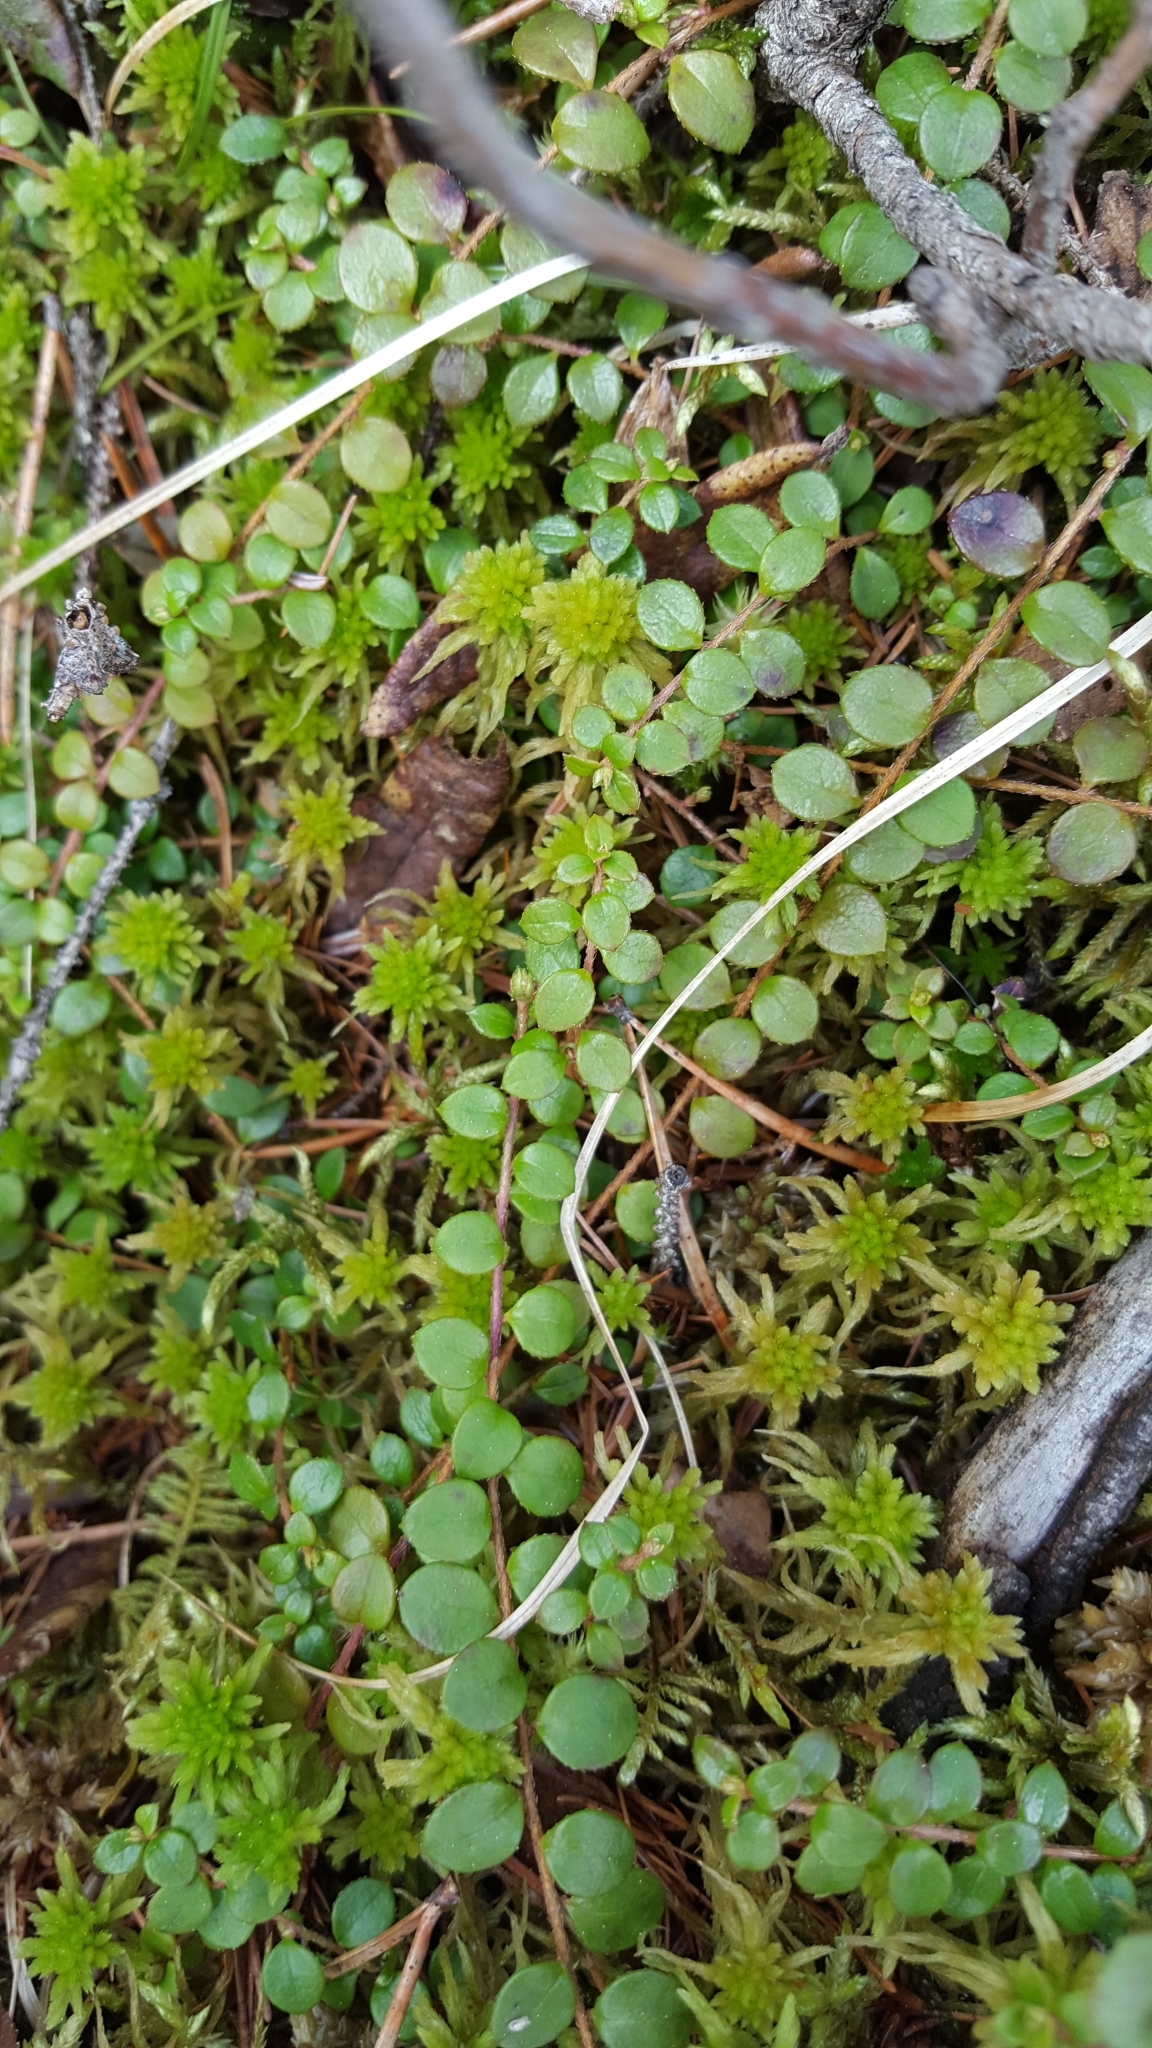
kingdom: Plantae
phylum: Tracheophyta
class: Magnoliopsida
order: Ericales
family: Ericaceae
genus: Gaultheria
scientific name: Gaultheria hispidula
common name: Cancer wintergreen
